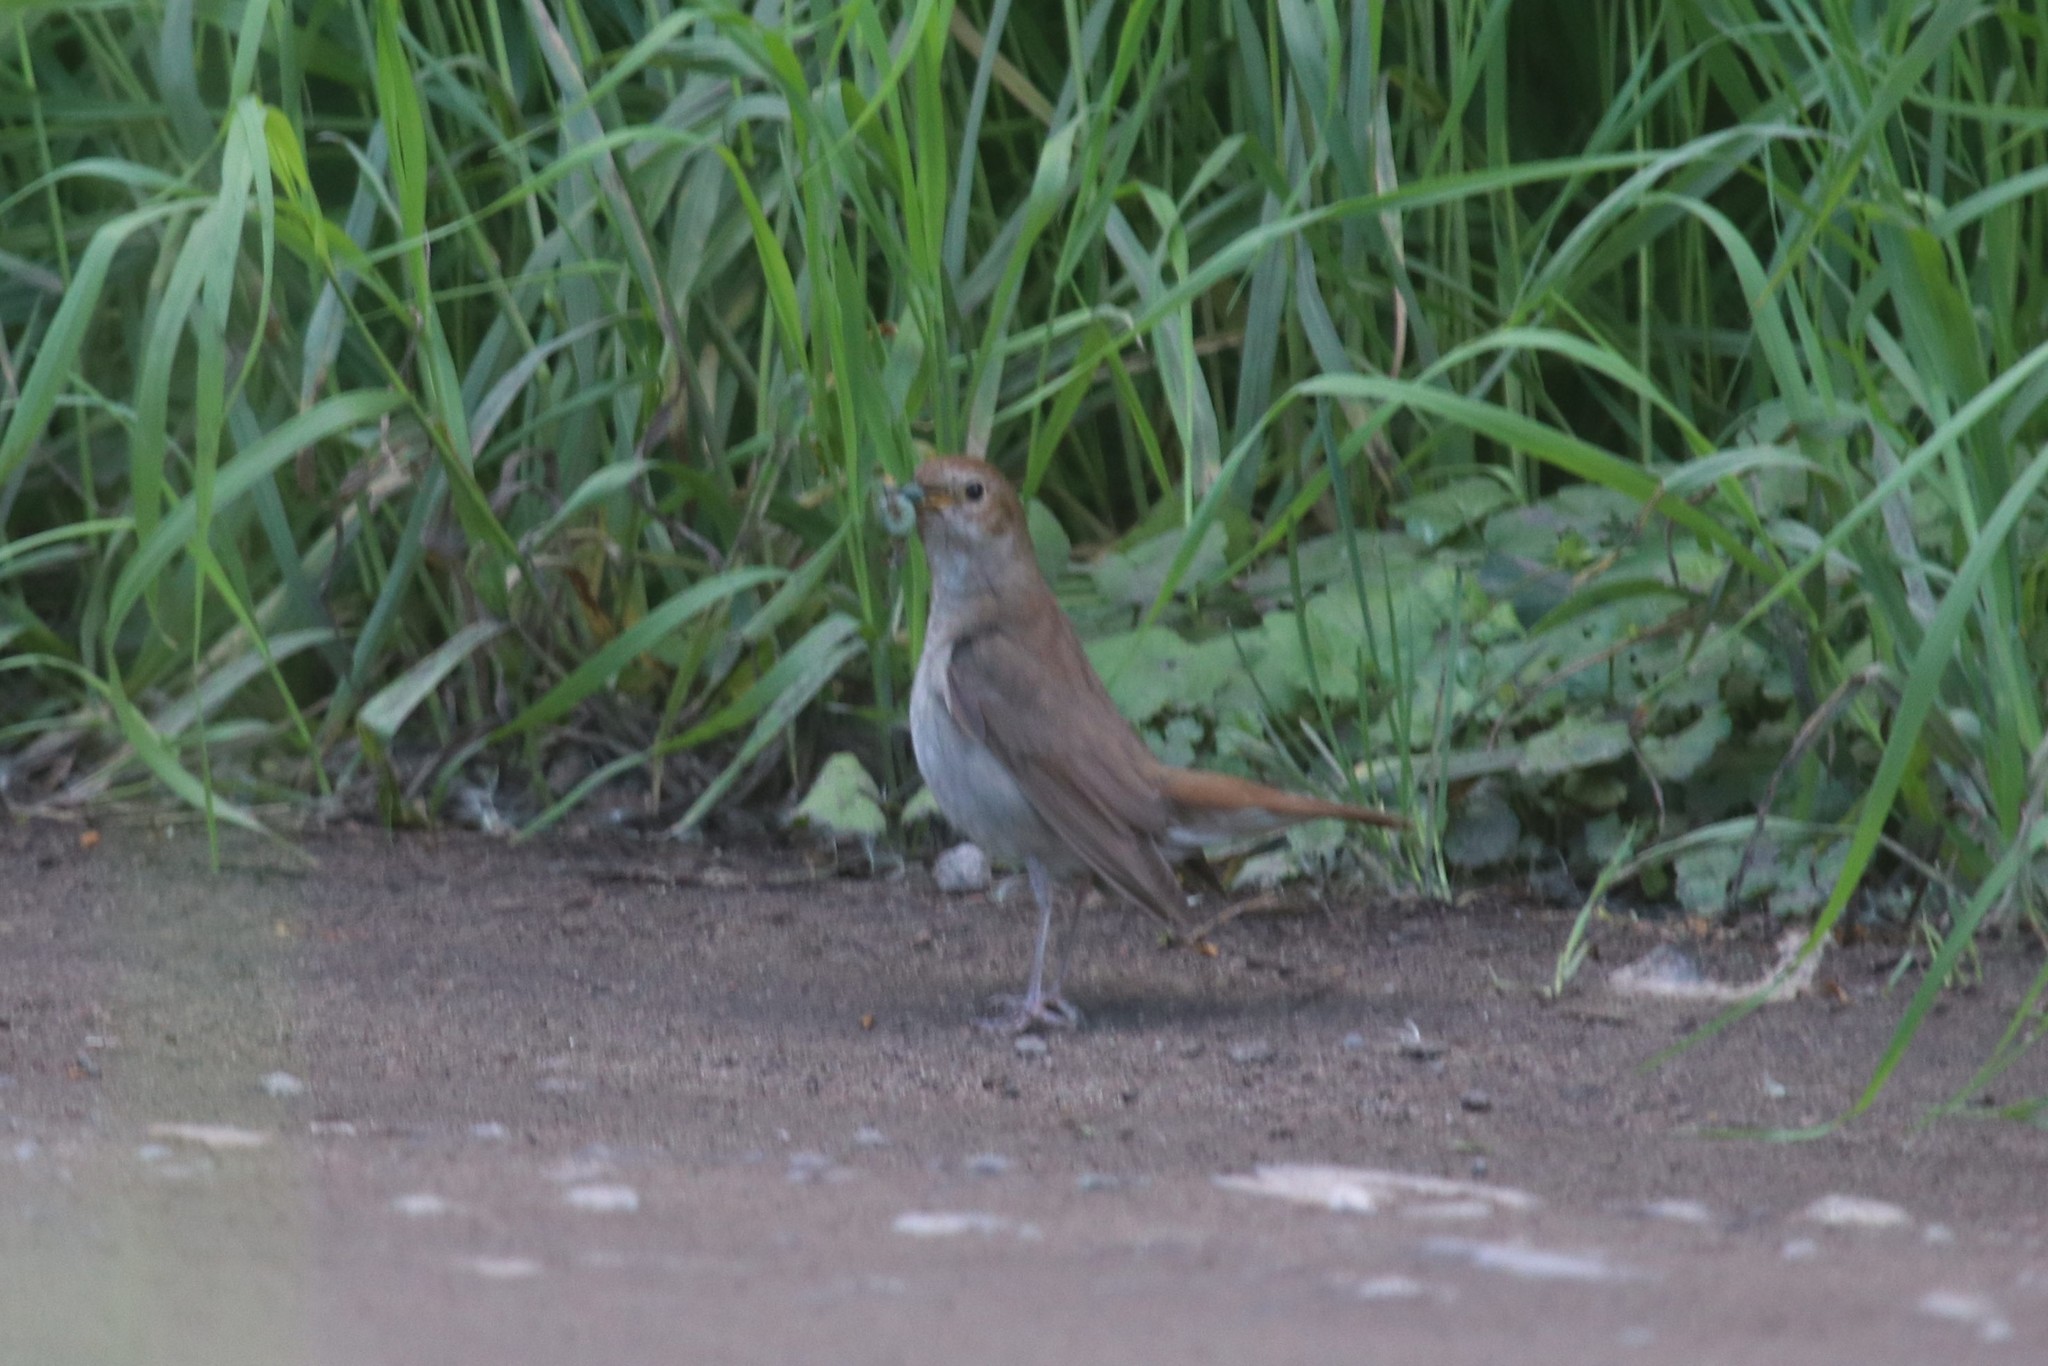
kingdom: Animalia
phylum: Chordata
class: Aves
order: Passeriformes
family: Muscicapidae
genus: Luscinia
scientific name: Luscinia luscinia
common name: Thrush nightingale
